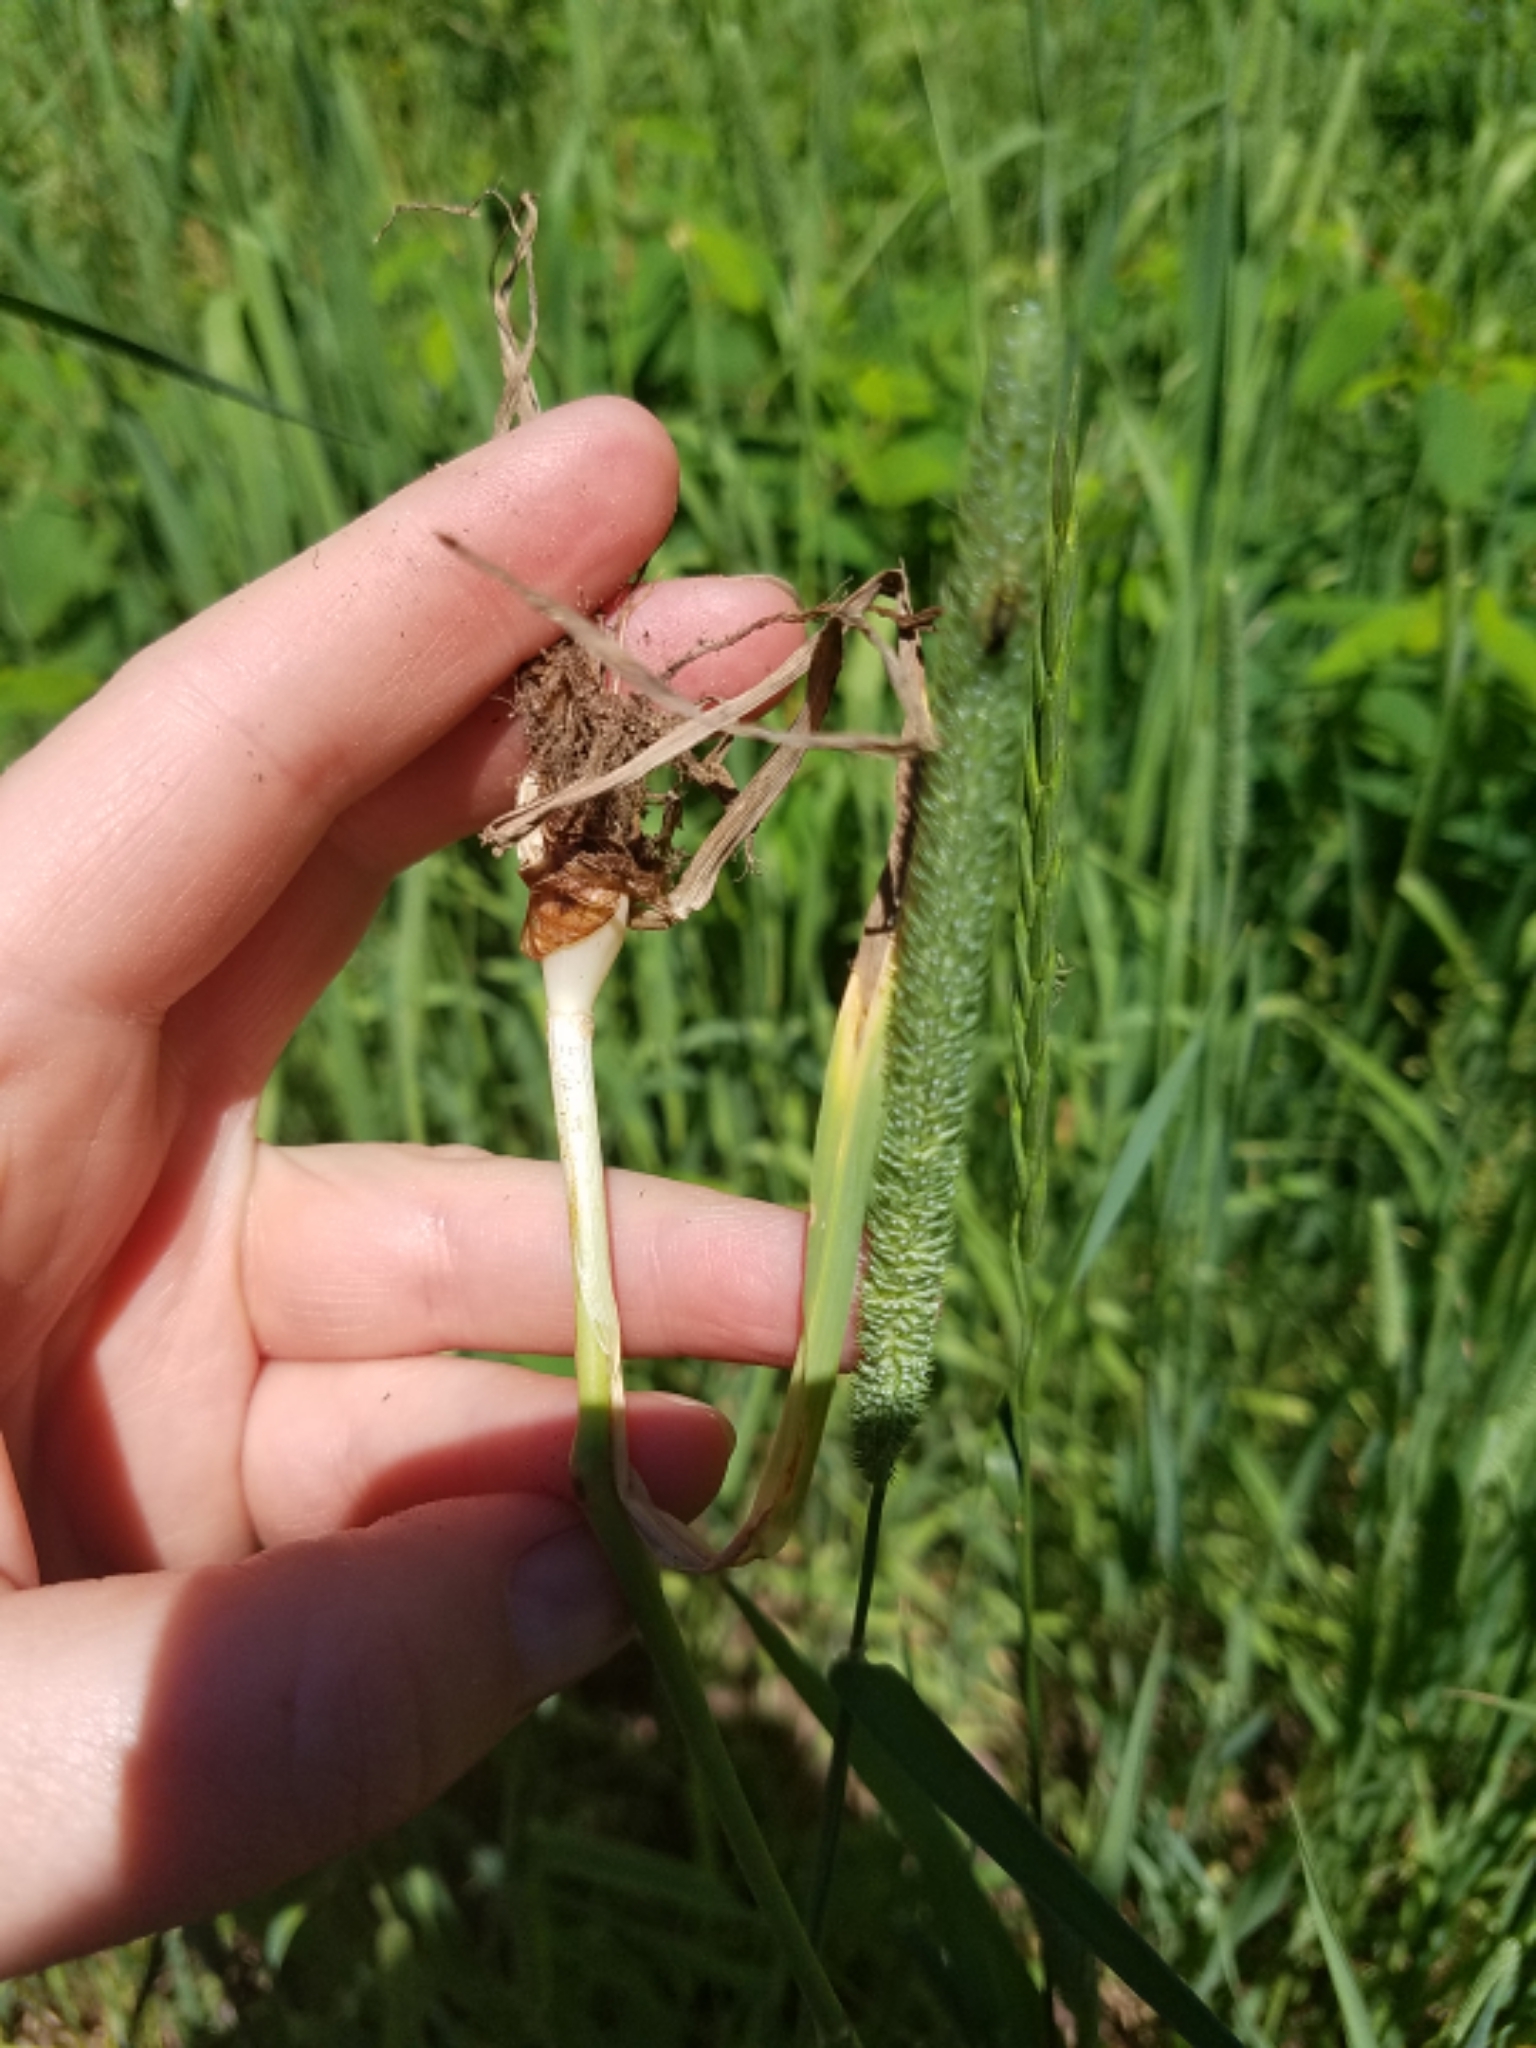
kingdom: Plantae
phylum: Tracheophyta
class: Liliopsida
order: Poales
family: Poaceae
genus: Phleum
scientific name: Phleum pratense
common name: Timothy grass
